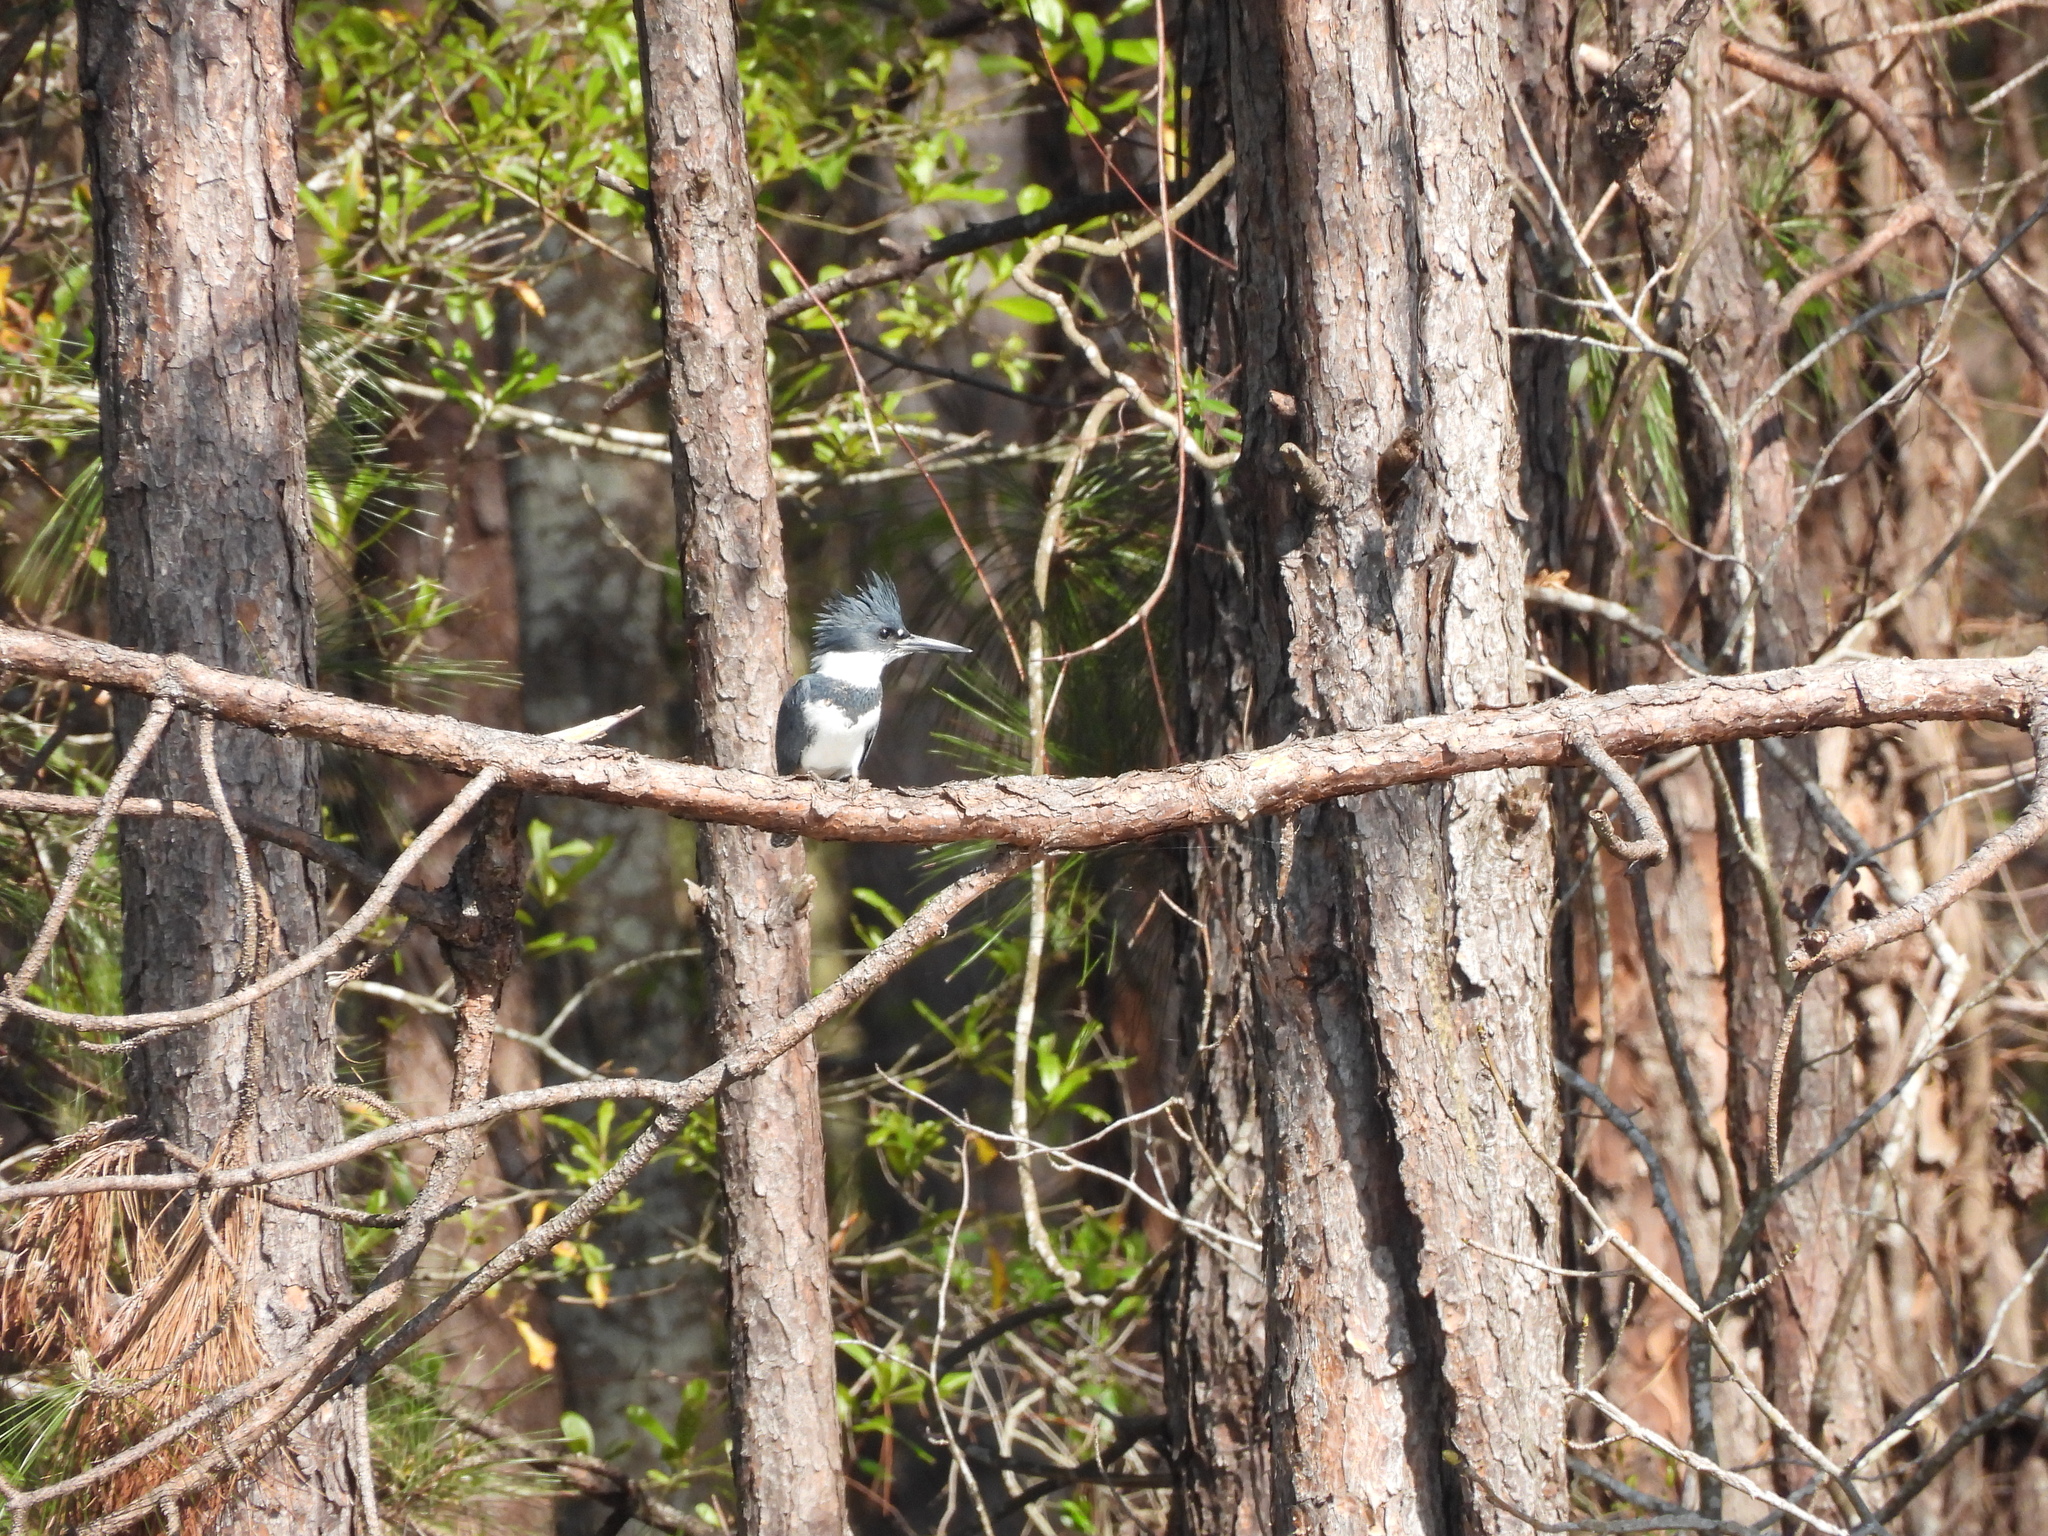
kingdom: Animalia
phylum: Chordata
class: Aves
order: Coraciiformes
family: Alcedinidae
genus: Megaceryle
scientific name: Megaceryle alcyon
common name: Belted kingfisher
